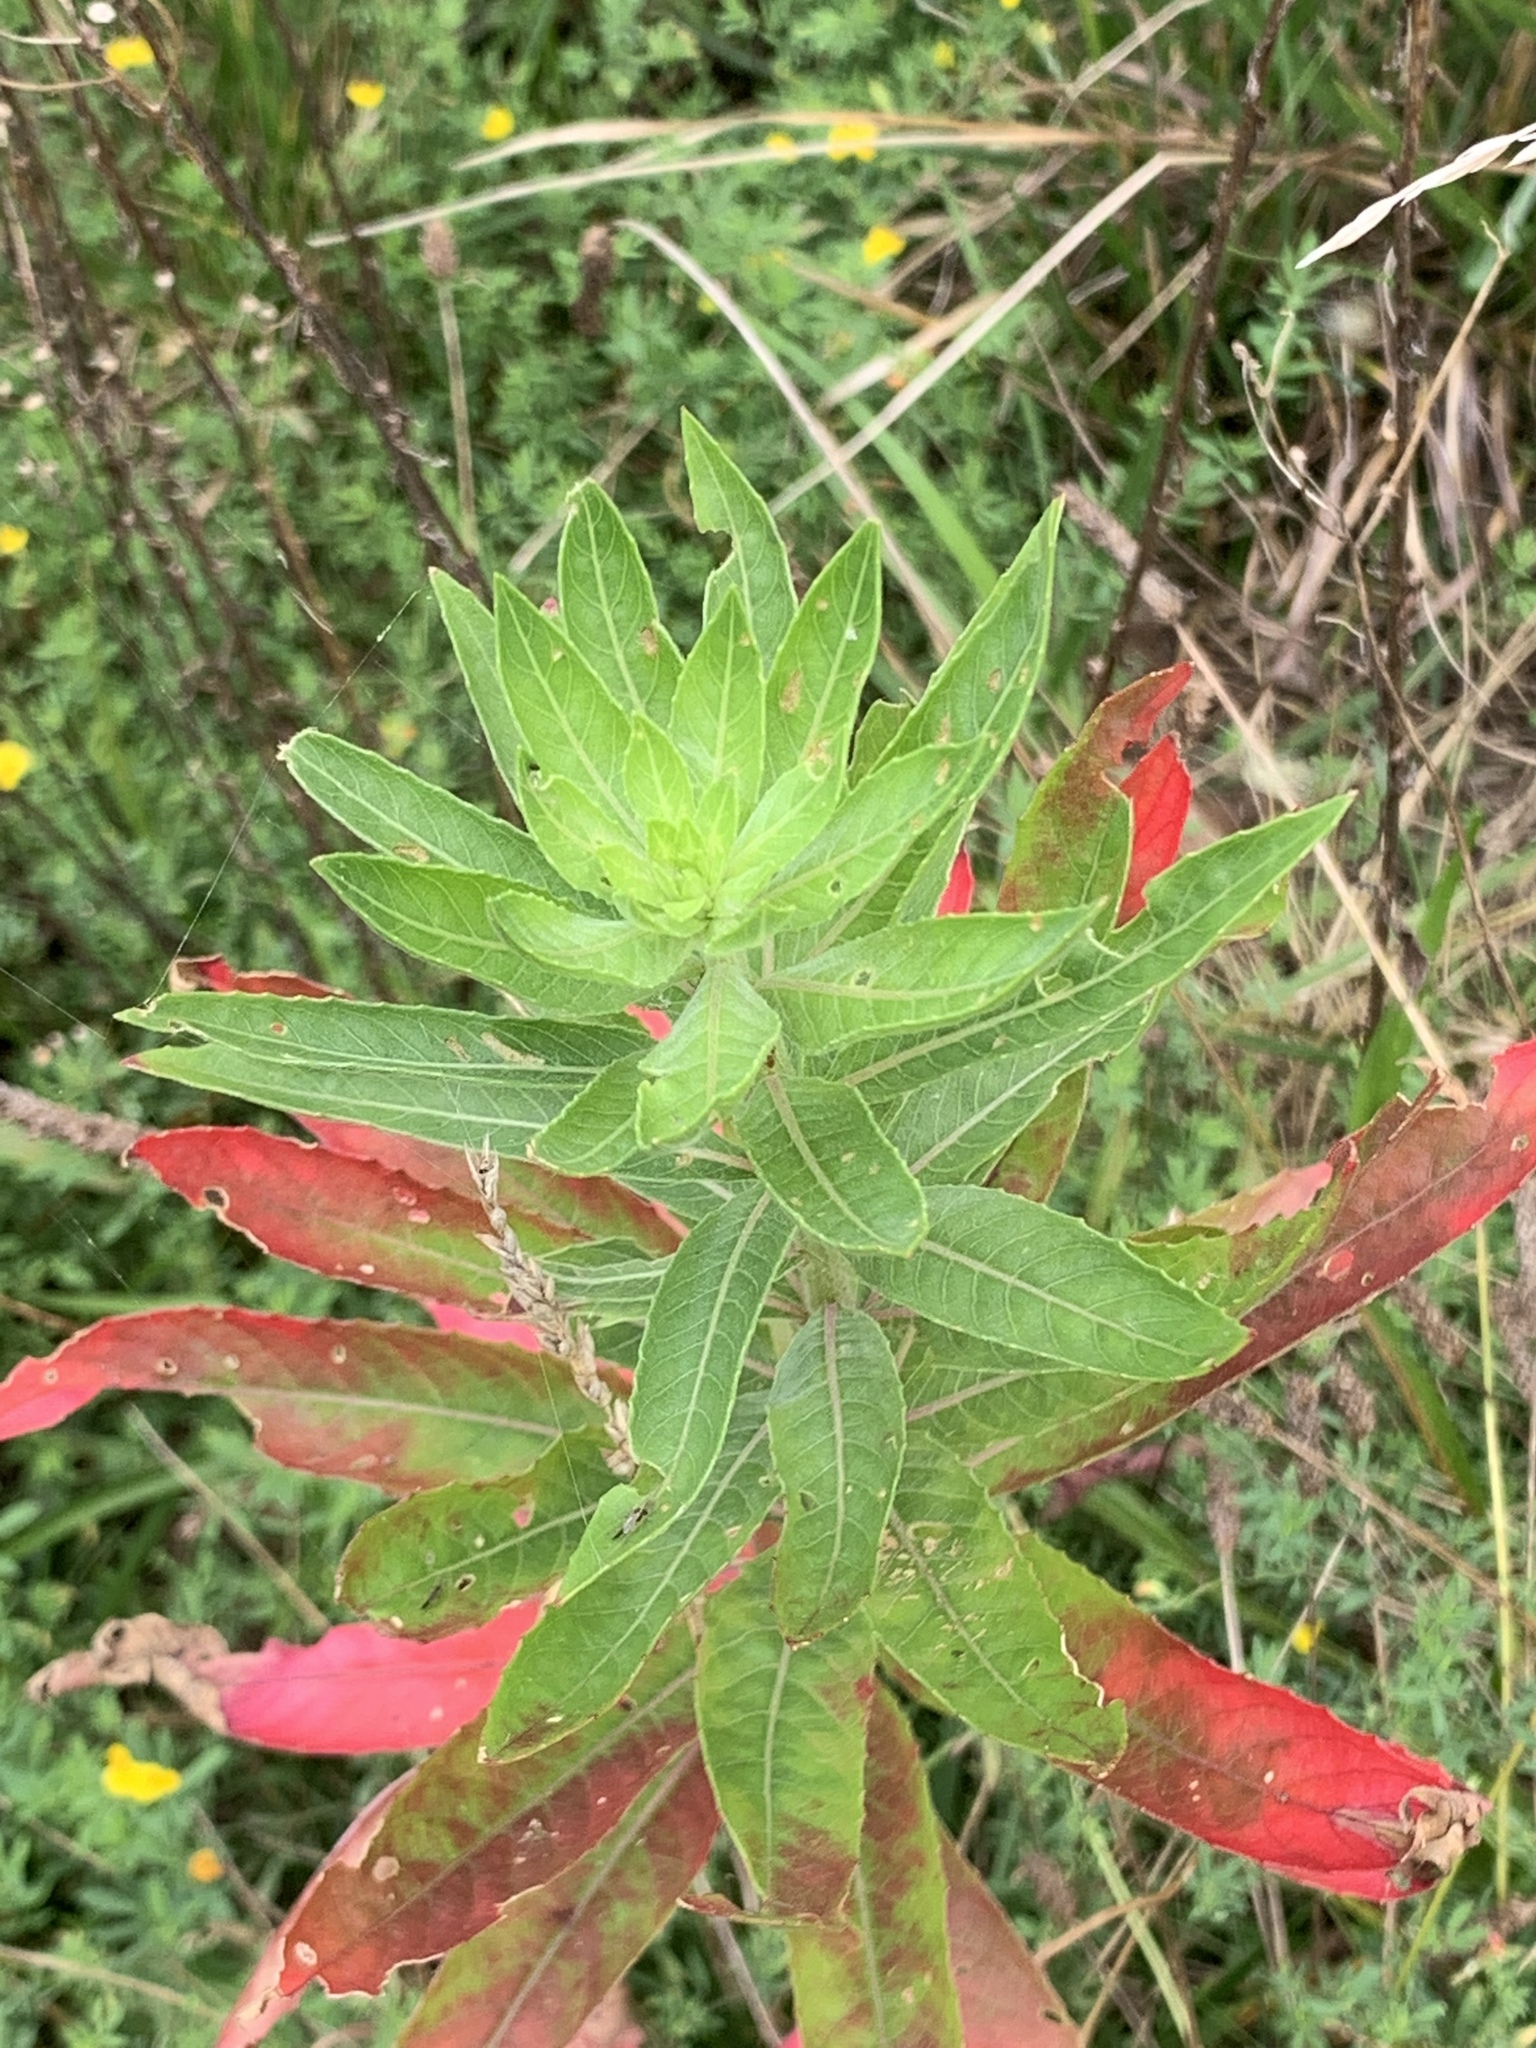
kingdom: Plantae
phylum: Tracheophyta
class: Magnoliopsida
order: Myrtales
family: Onagraceae
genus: Oenothera
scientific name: Oenothera biennis
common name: Common evening-primrose
